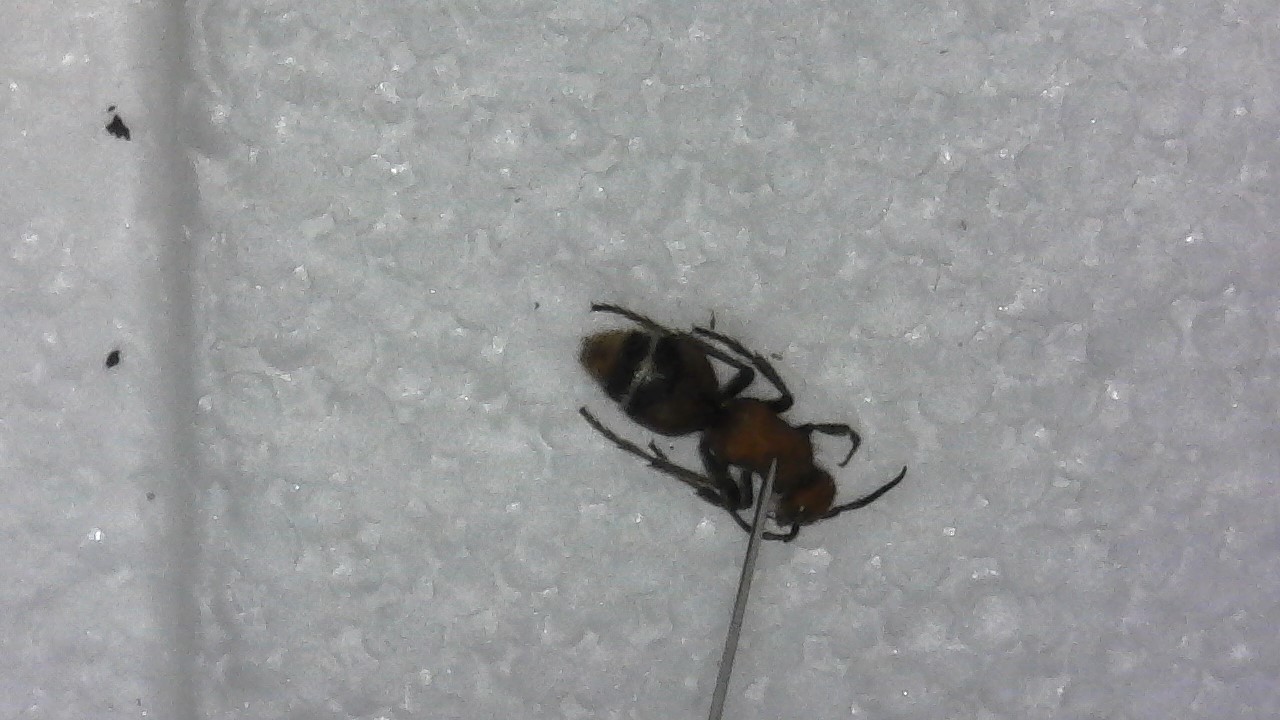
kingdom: Animalia
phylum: Arthropoda
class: Insecta
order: Hymenoptera
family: Mutillidae
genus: Timulla
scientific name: Timulla
